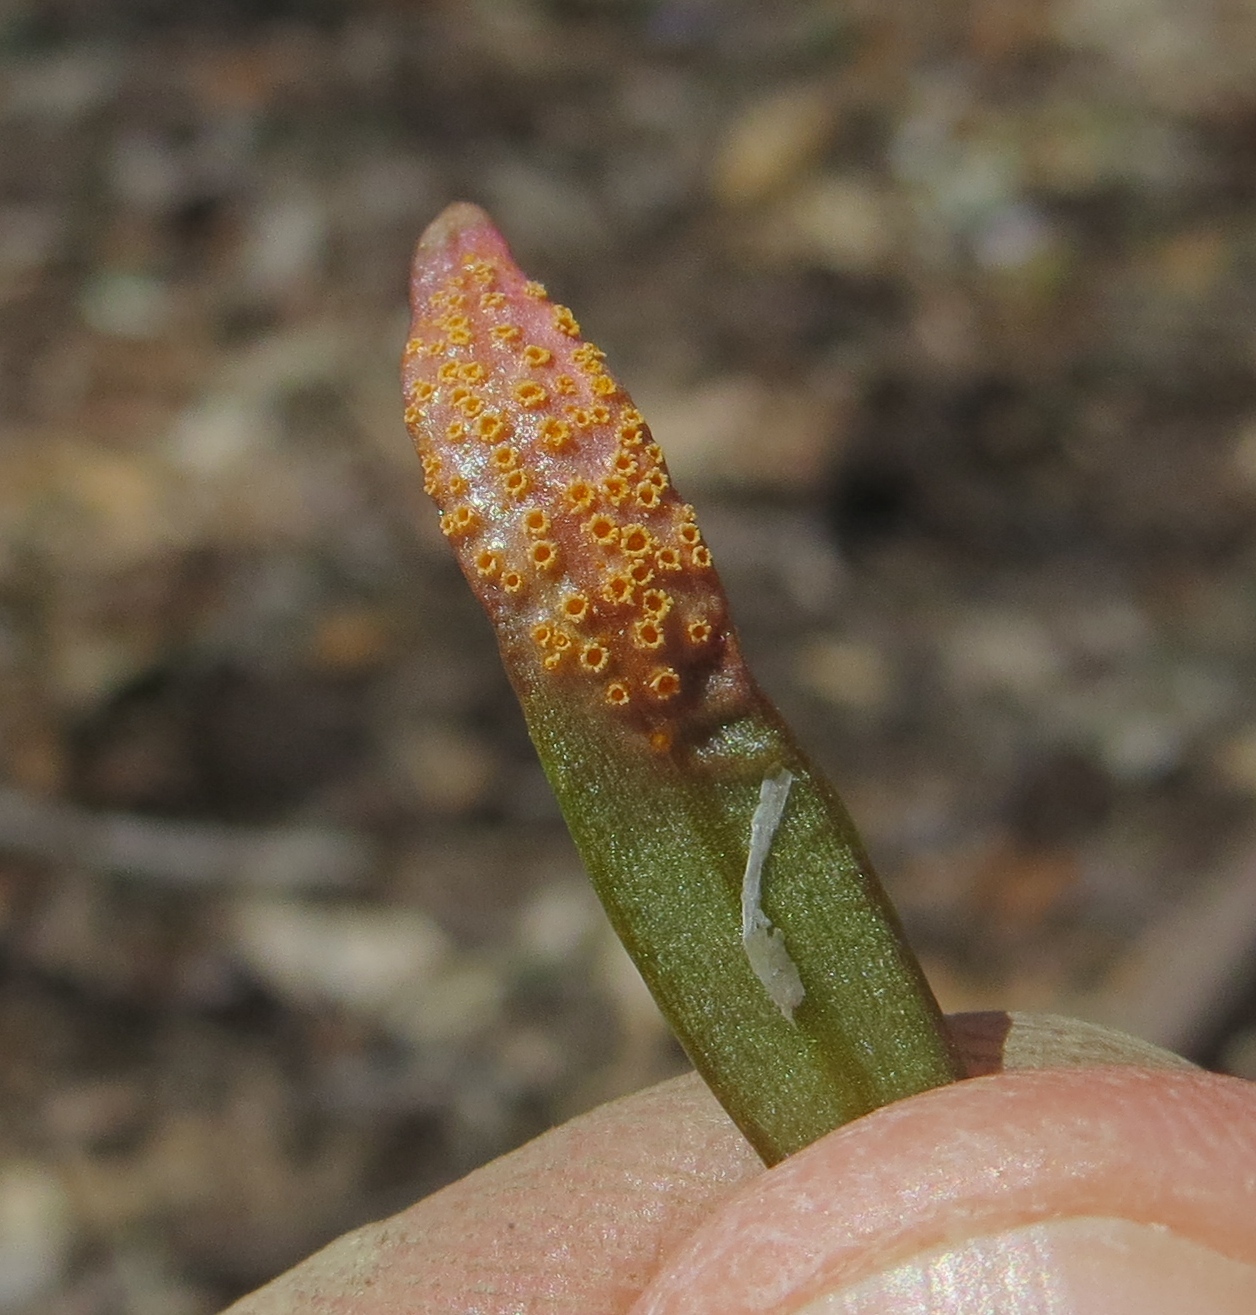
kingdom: Fungi
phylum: Basidiomycota
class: Pucciniomycetes
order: Pucciniales
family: Pucciniaceae
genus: Puccinia
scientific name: Puccinia mariae-wilsoniae
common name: Spring beauty rust
